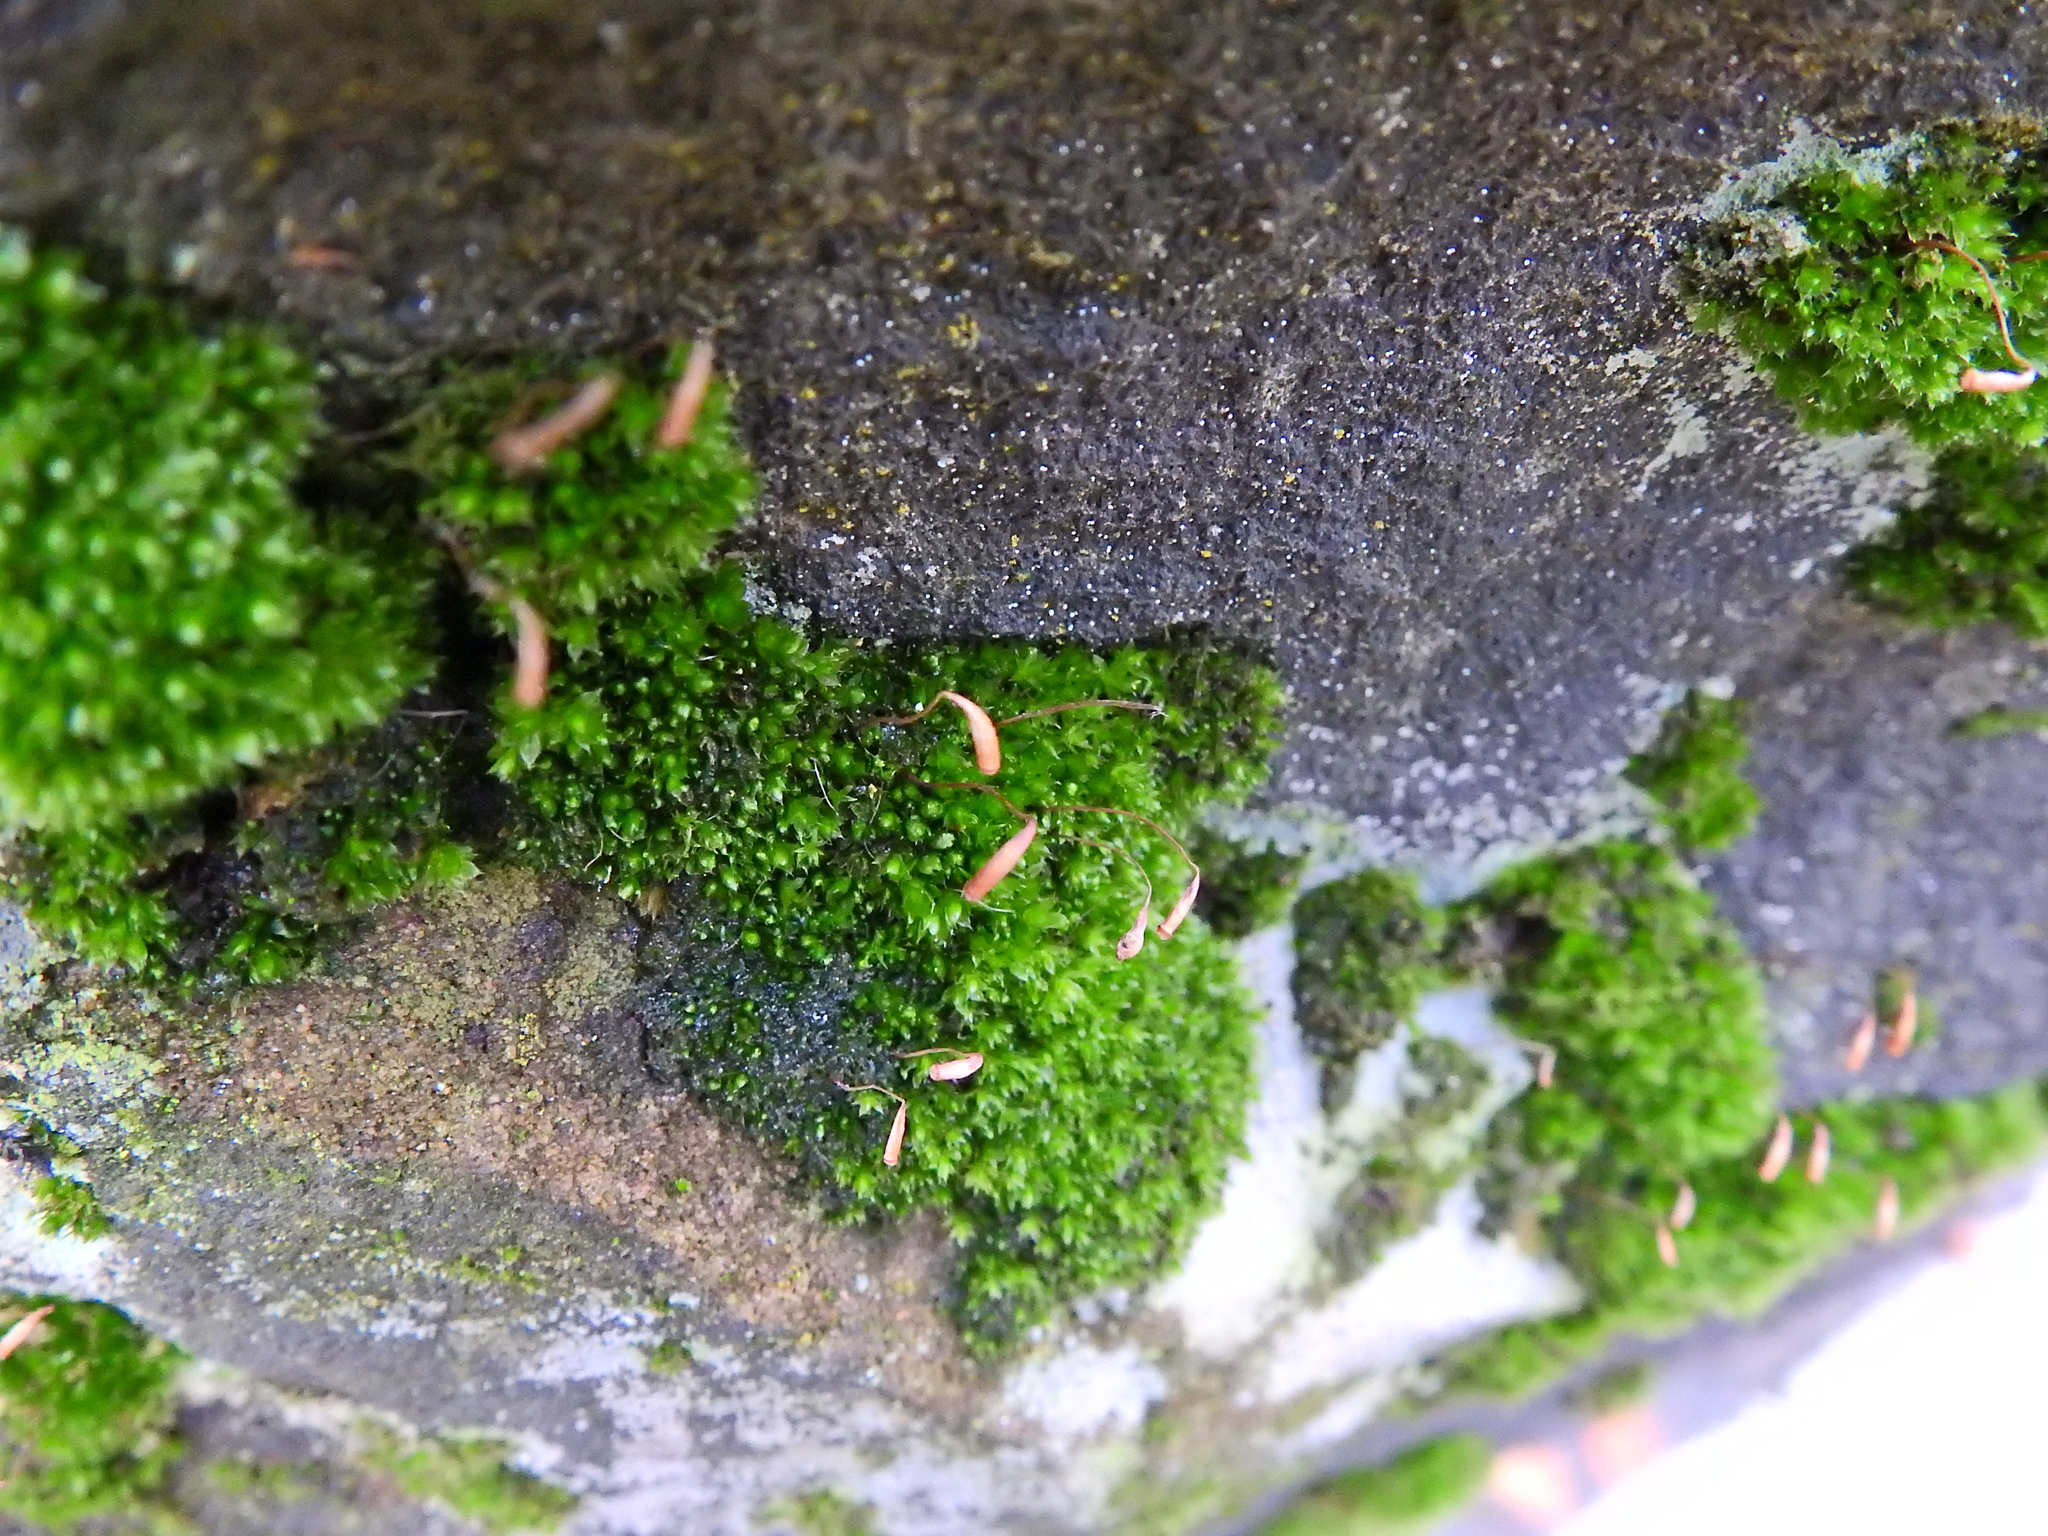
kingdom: Plantae
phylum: Bryophyta
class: Bryopsida
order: Bryales
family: Bryaceae
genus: Rosulabryum
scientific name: Rosulabryum capillare
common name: Capillary thread-moss
